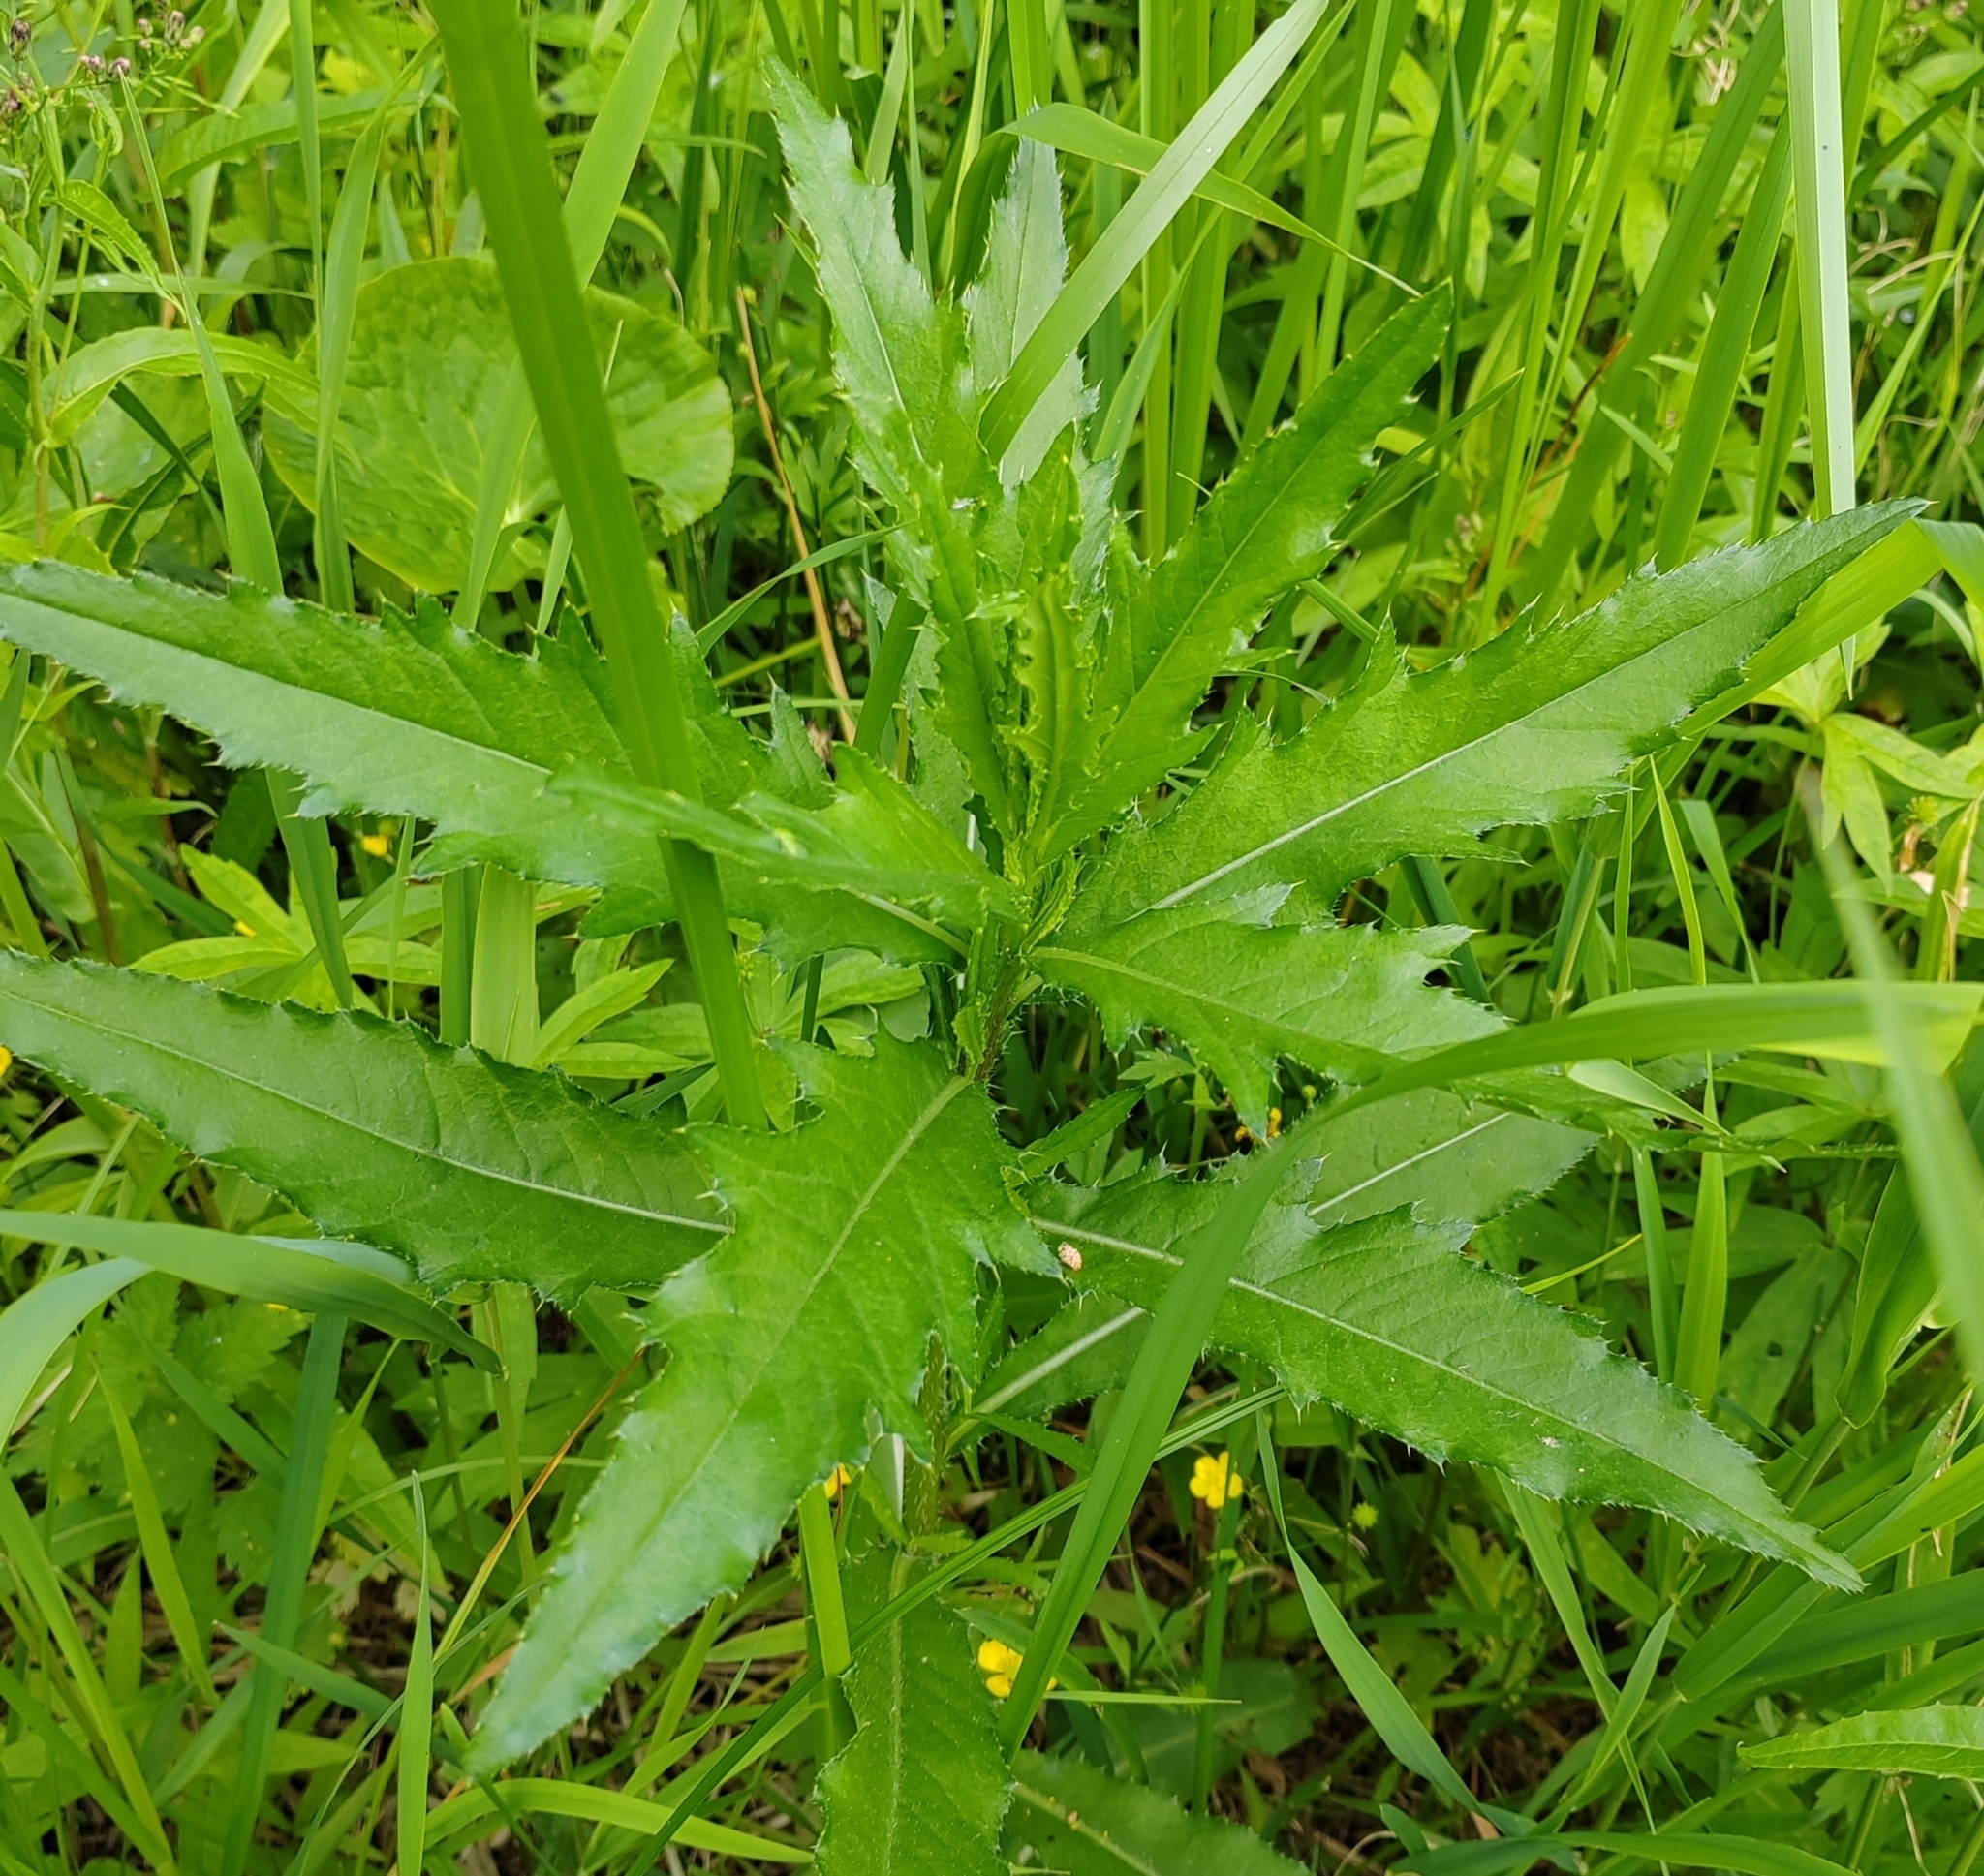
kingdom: Plantae
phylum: Tracheophyta
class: Magnoliopsida
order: Asterales
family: Asteraceae
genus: Cirsium
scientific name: Cirsium arvense
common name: Creeping thistle
